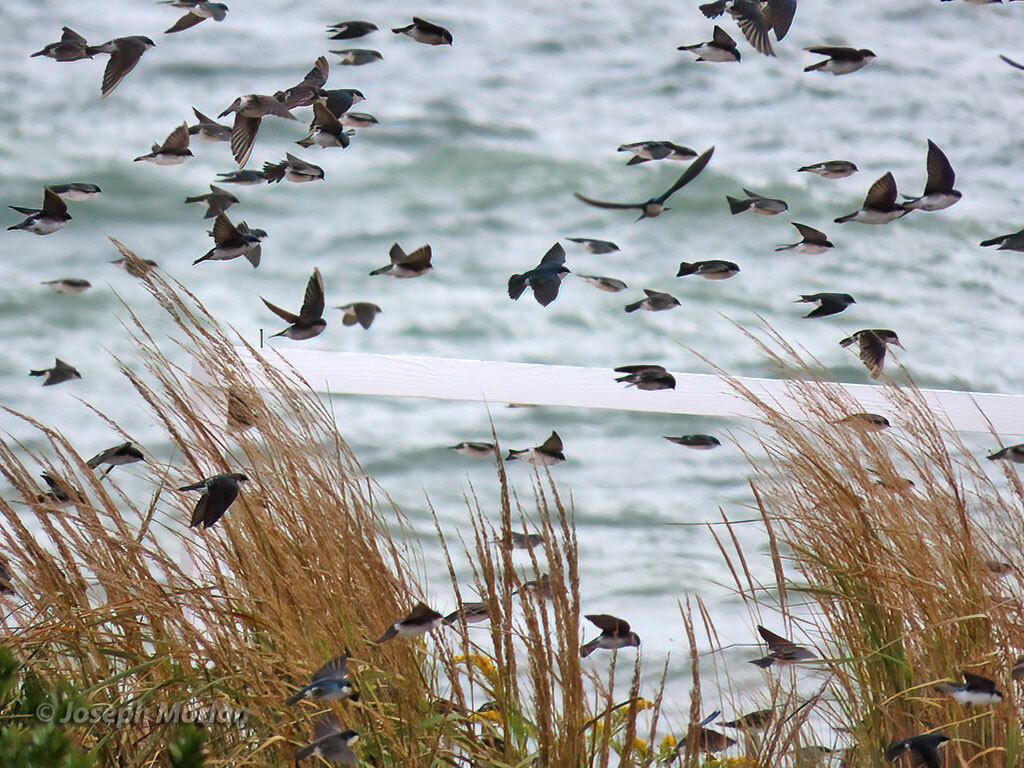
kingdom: Animalia
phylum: Chordata
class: Aves
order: Passeriformes
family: Hirundinidae
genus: Tachycineta
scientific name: Tachycineta bicolor
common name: Tree swallow
